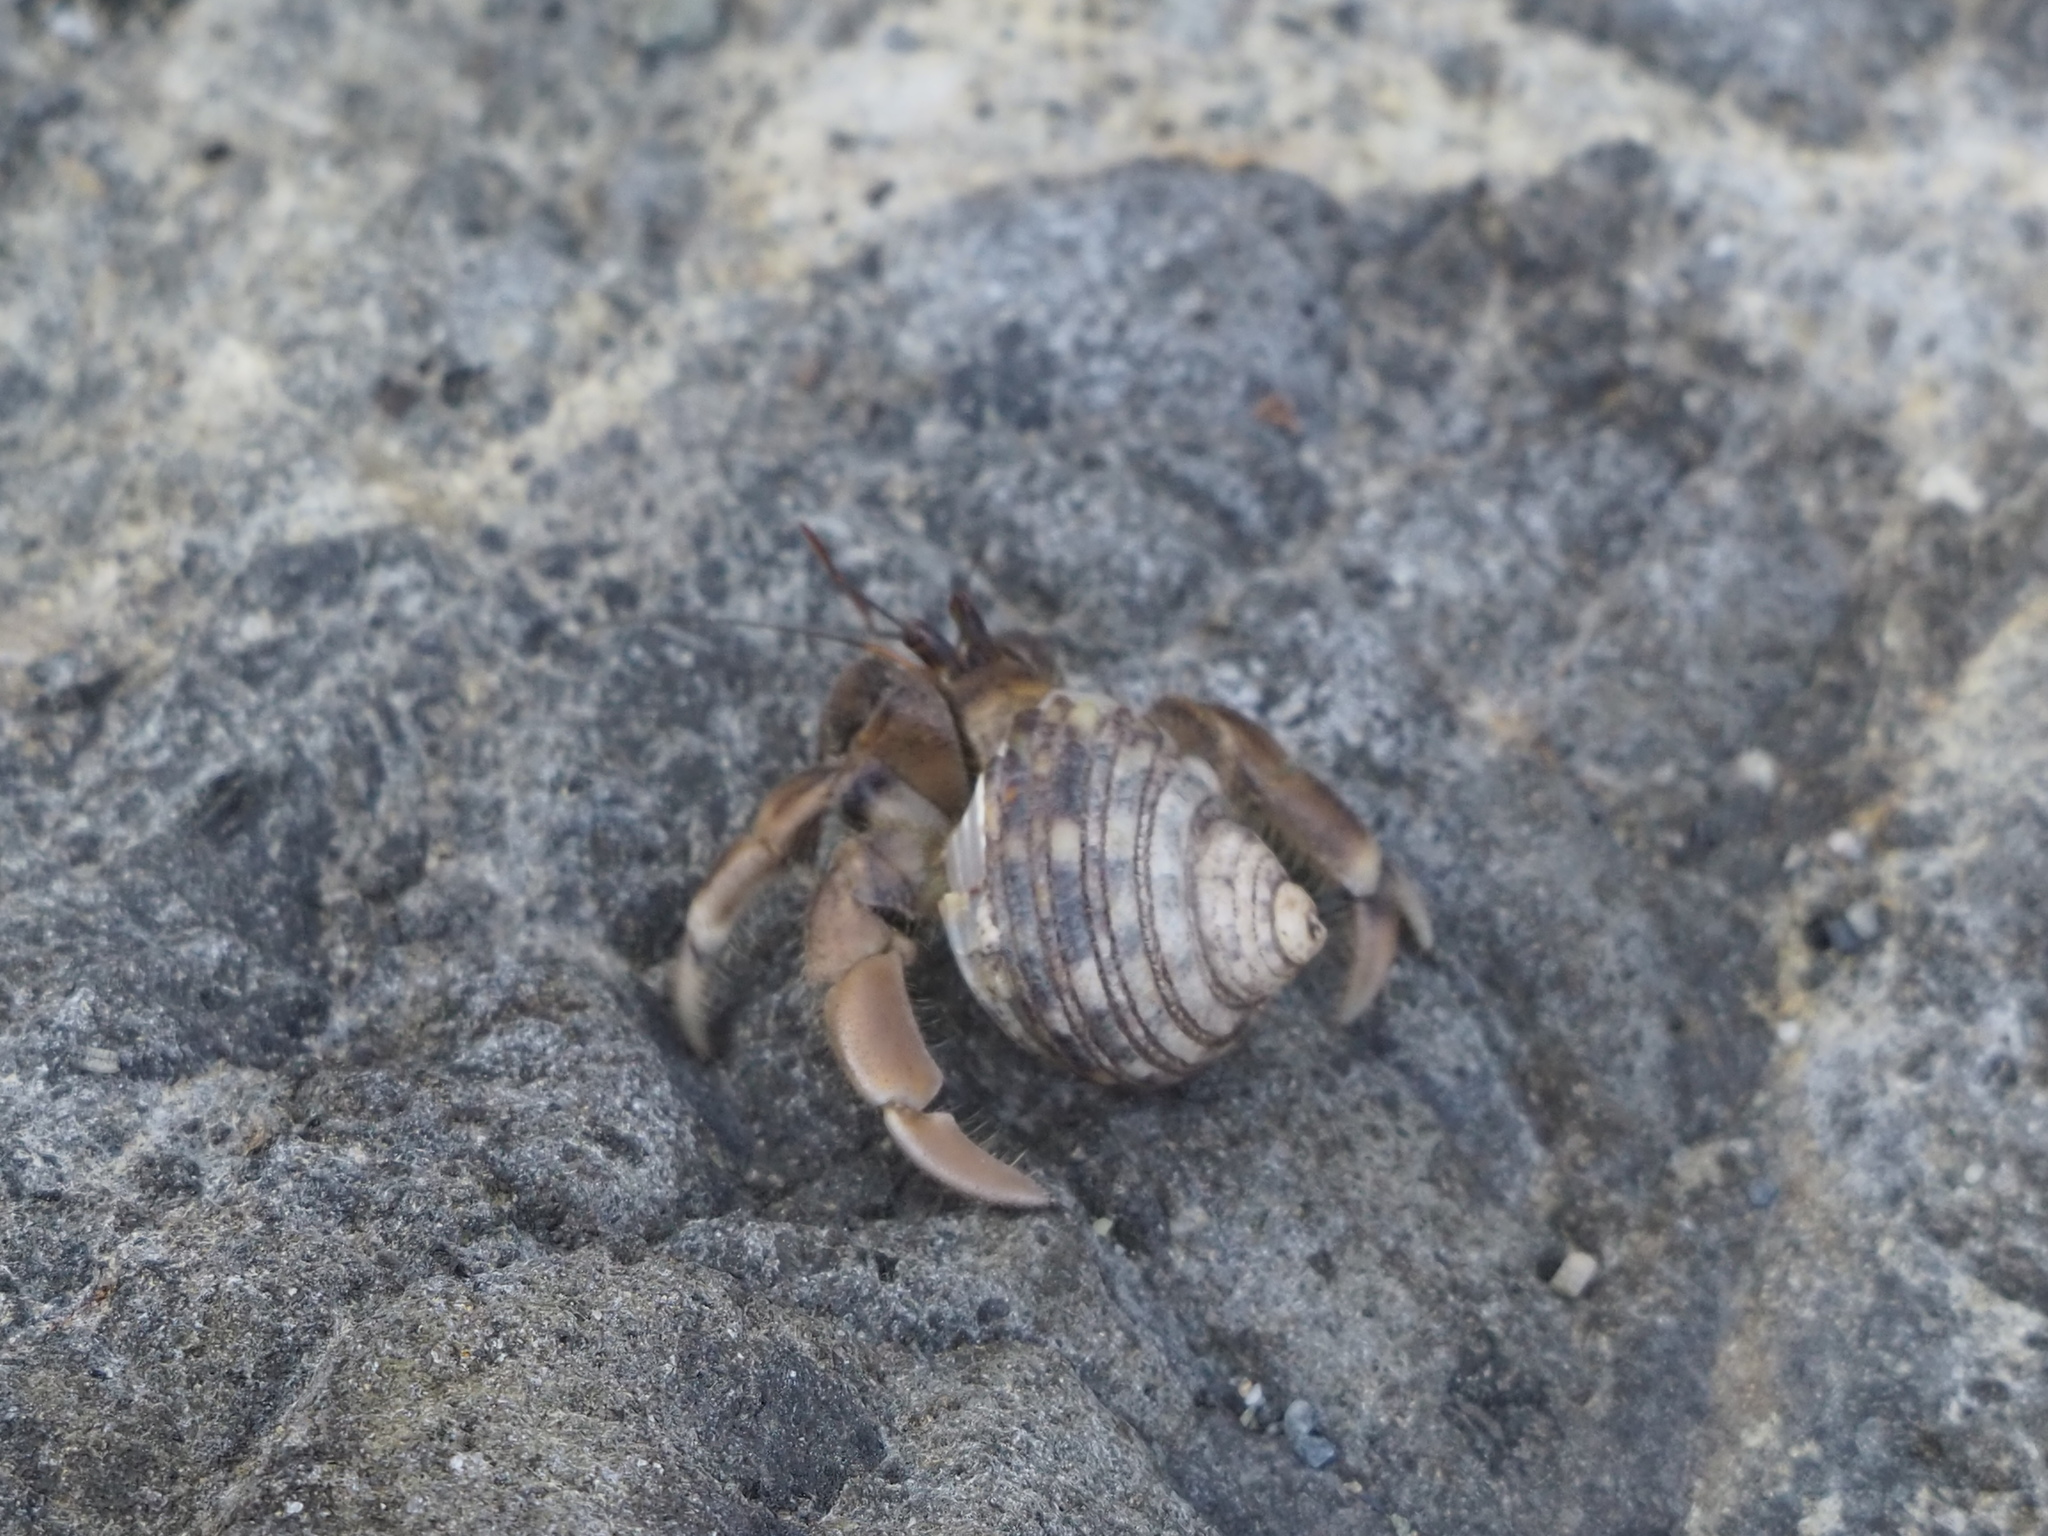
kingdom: Animalia
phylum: Arthropoda
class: Malacostraca
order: Decapoda
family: Coenobitidae
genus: Coenobita
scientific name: Coenobita rugosus
